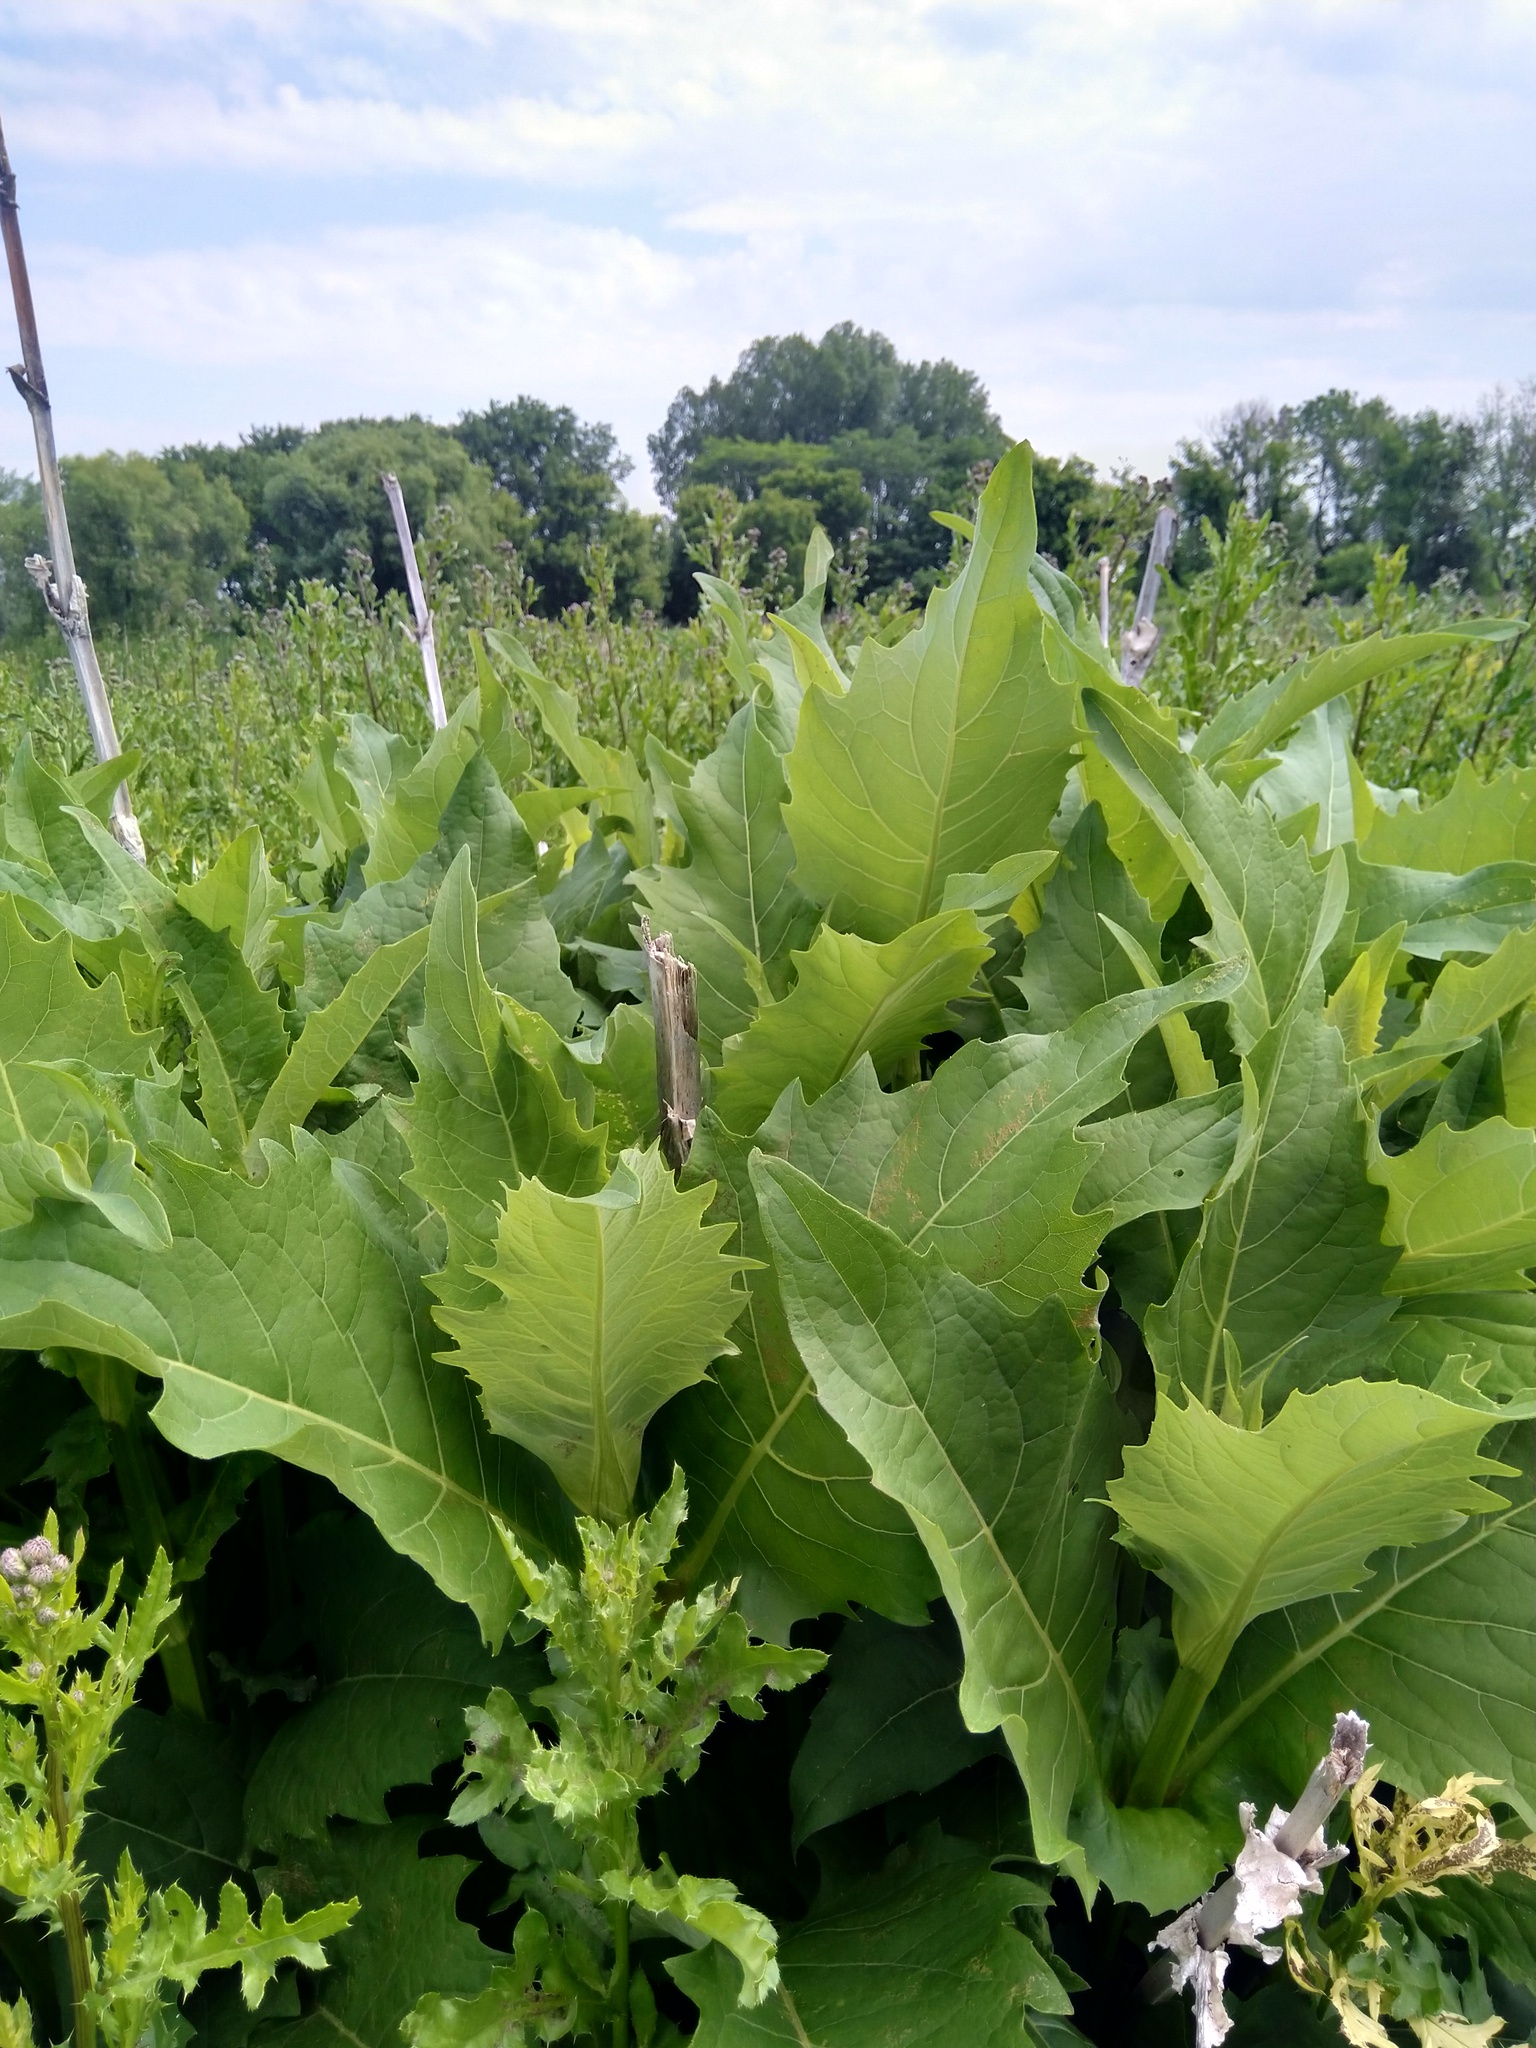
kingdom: Plantae
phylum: Tracheophyta
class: Magnoliopsida
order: Asterales
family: Asteraceae
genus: Silphium
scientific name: Silphium perfoliatum
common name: Cup-plant
